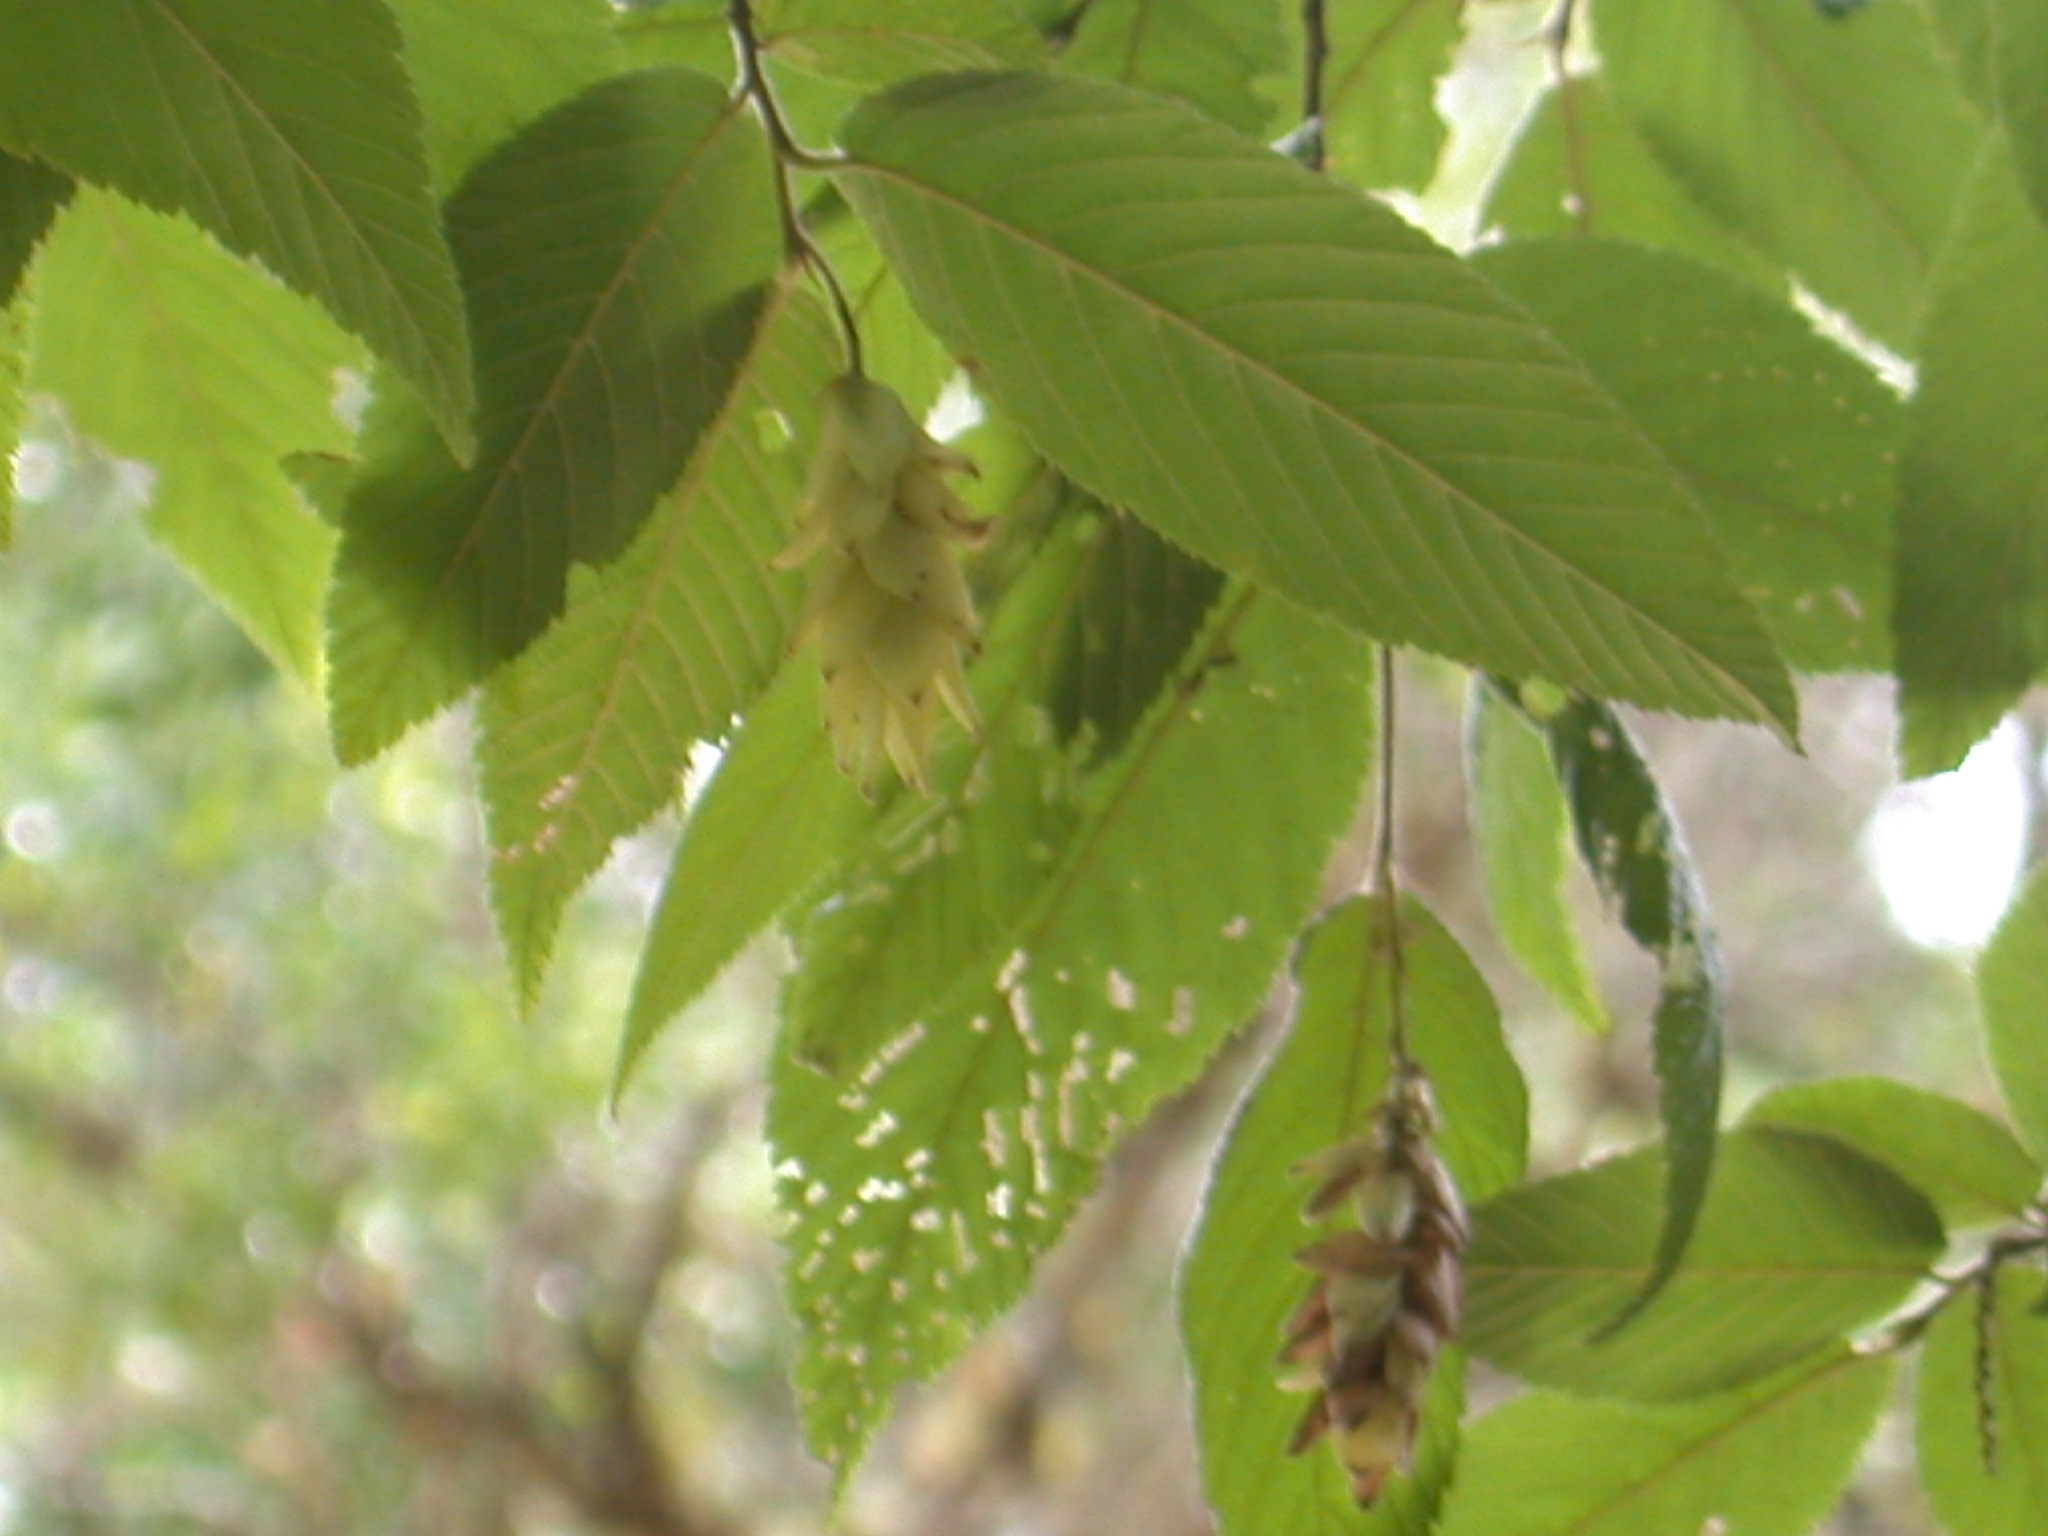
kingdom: Plantae
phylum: Tracheophyta
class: Magnoliopsida
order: Fagales
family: Betulaceae
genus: Ostrya
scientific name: Ostrya virginiana
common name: Ironwood
